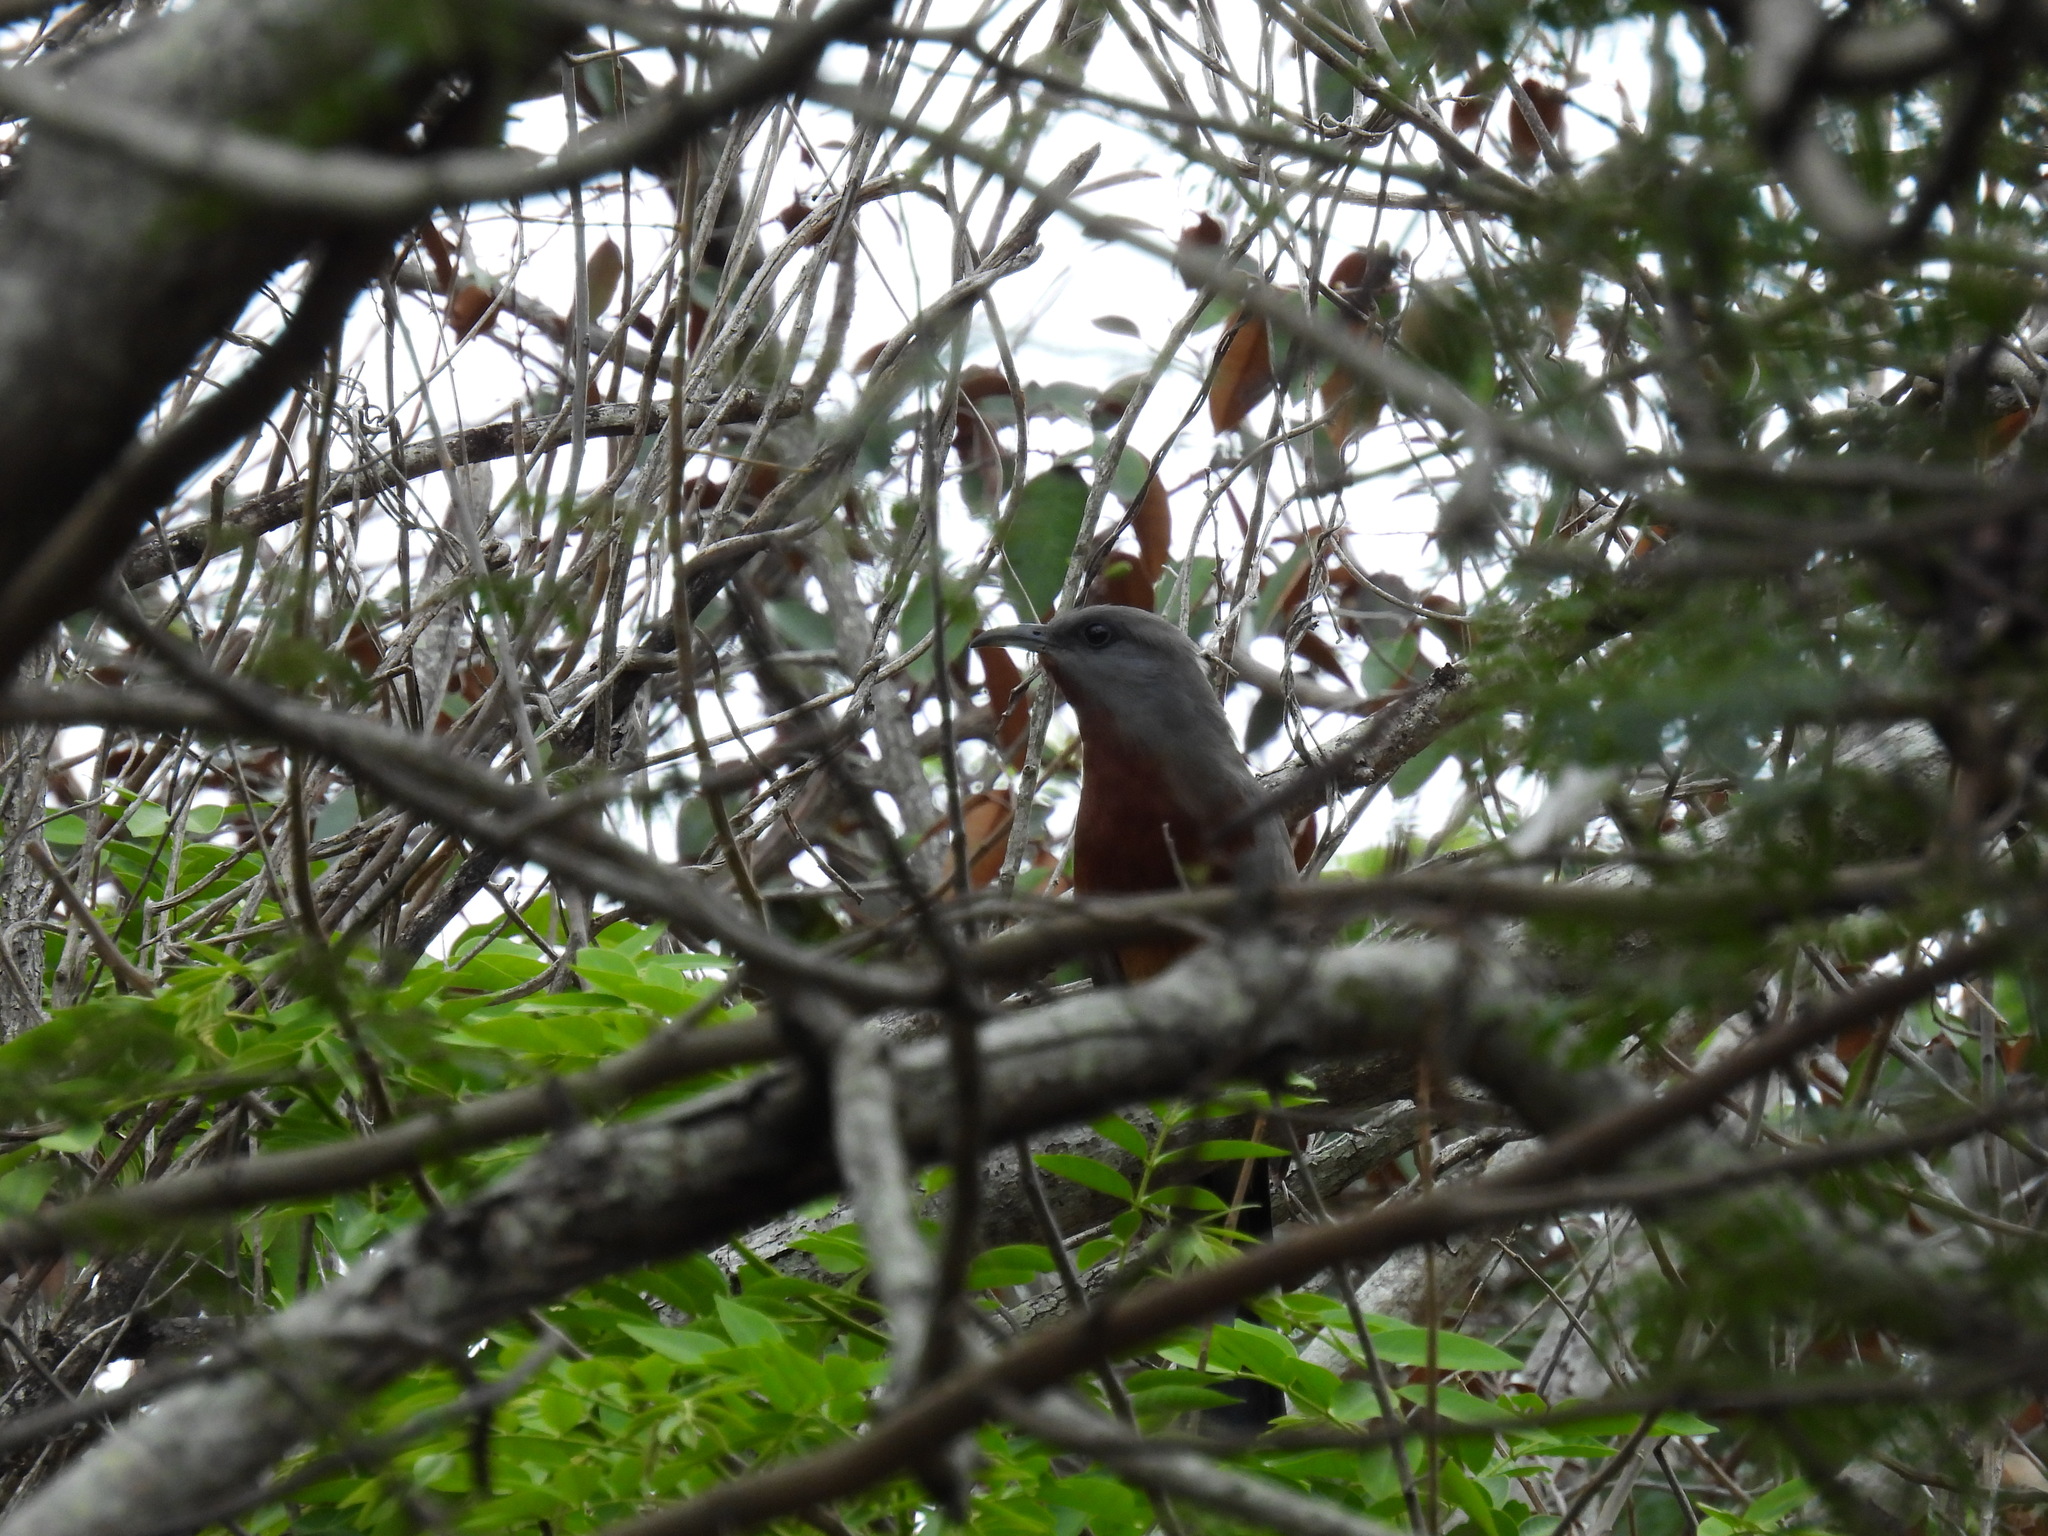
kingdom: Animalia
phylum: Chordata
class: Aves
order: Cuculiformes
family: Cuculidae
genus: Hyetornis
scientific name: Hyetornis rufigularis
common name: Bay-breasted cuckoo
